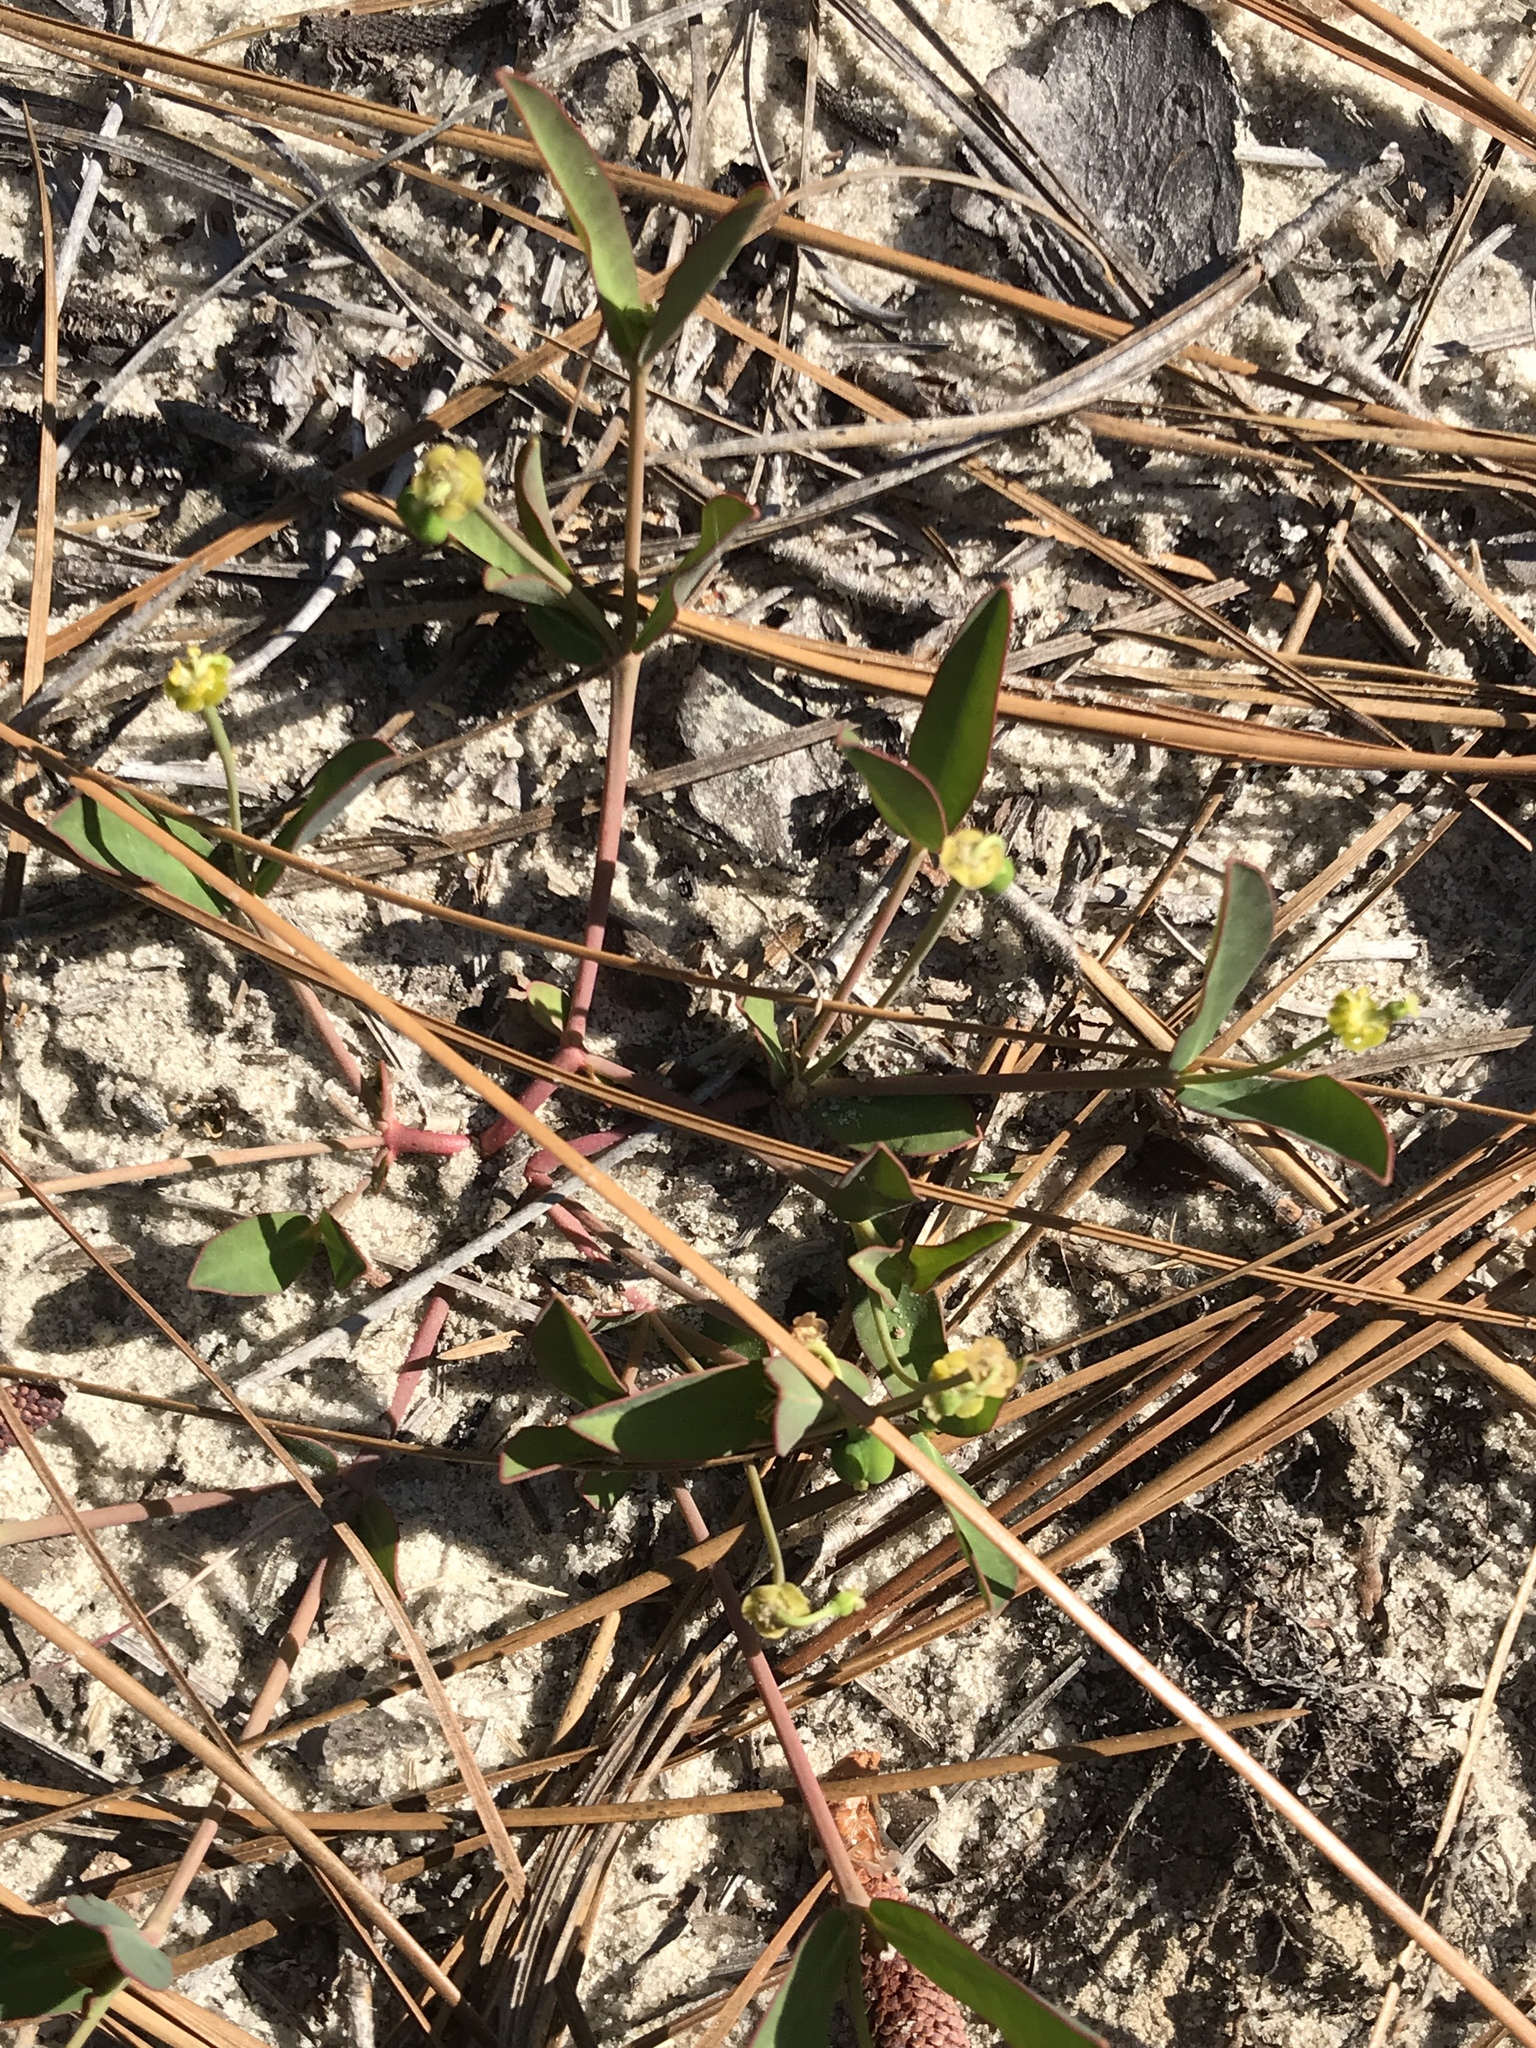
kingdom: Plantae
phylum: Tracheophyta
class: Magnoliopsida
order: Malpighiales
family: Euphorbiaceae
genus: Euphorbia
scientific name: Euphorbia ipecacuanhae
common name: Carolina ipecac
